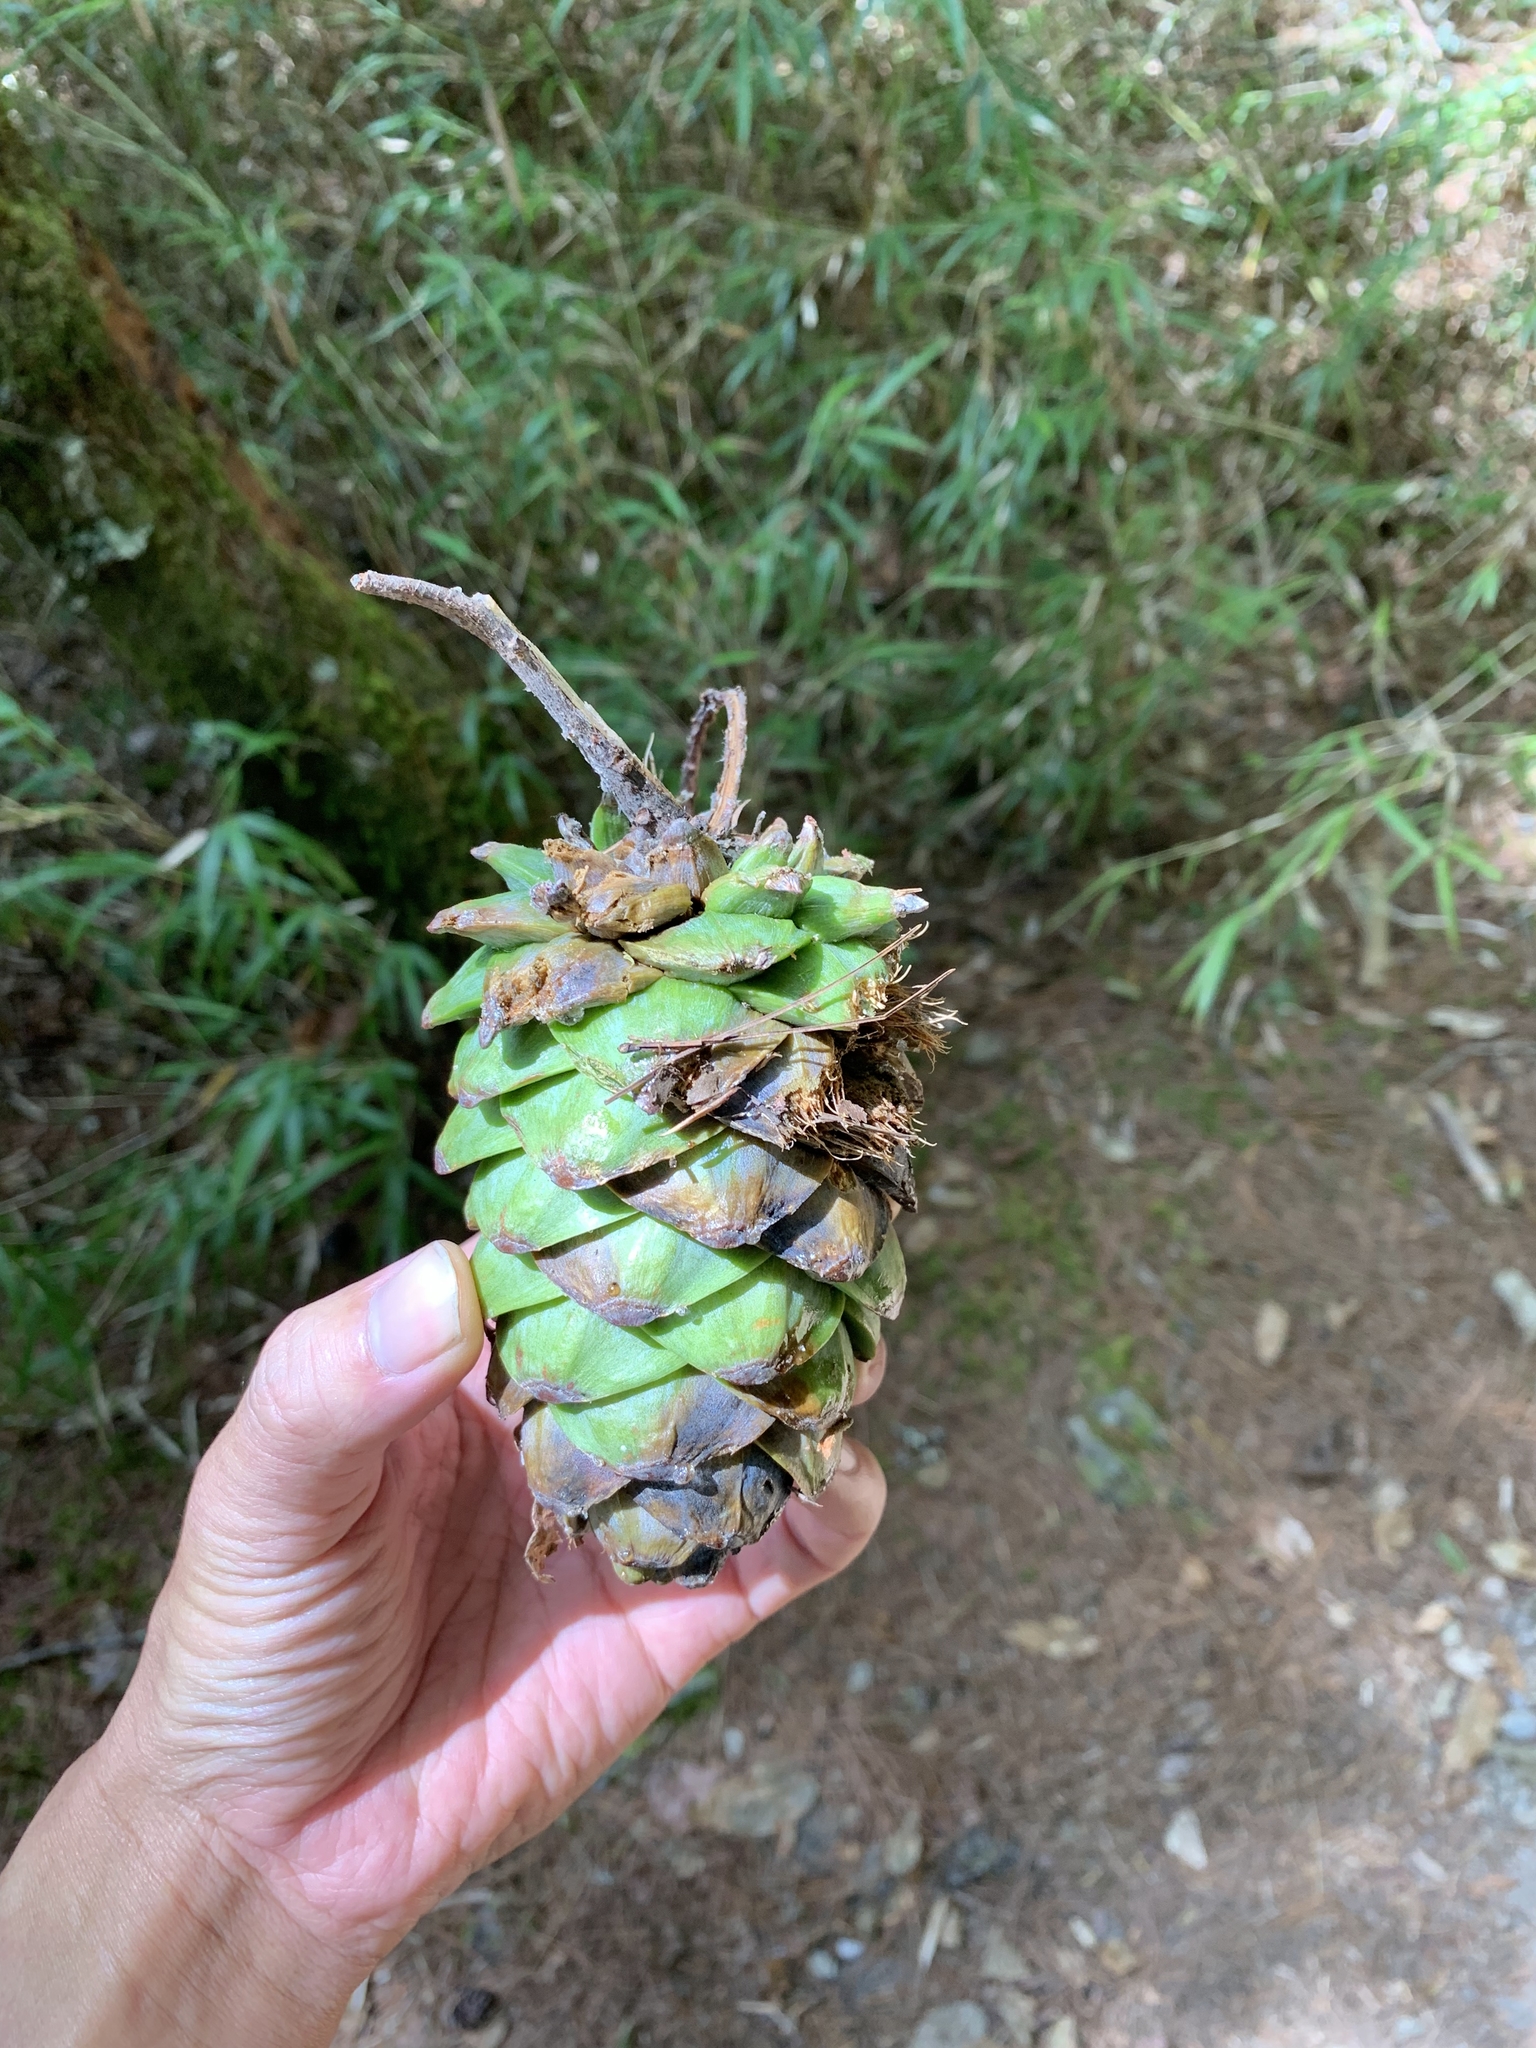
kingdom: Plantae
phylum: Tracheophyta
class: Pinopsida
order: Pinales
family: Pinaceae
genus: Pinus
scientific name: Pinus armandii
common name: Armand's pine
